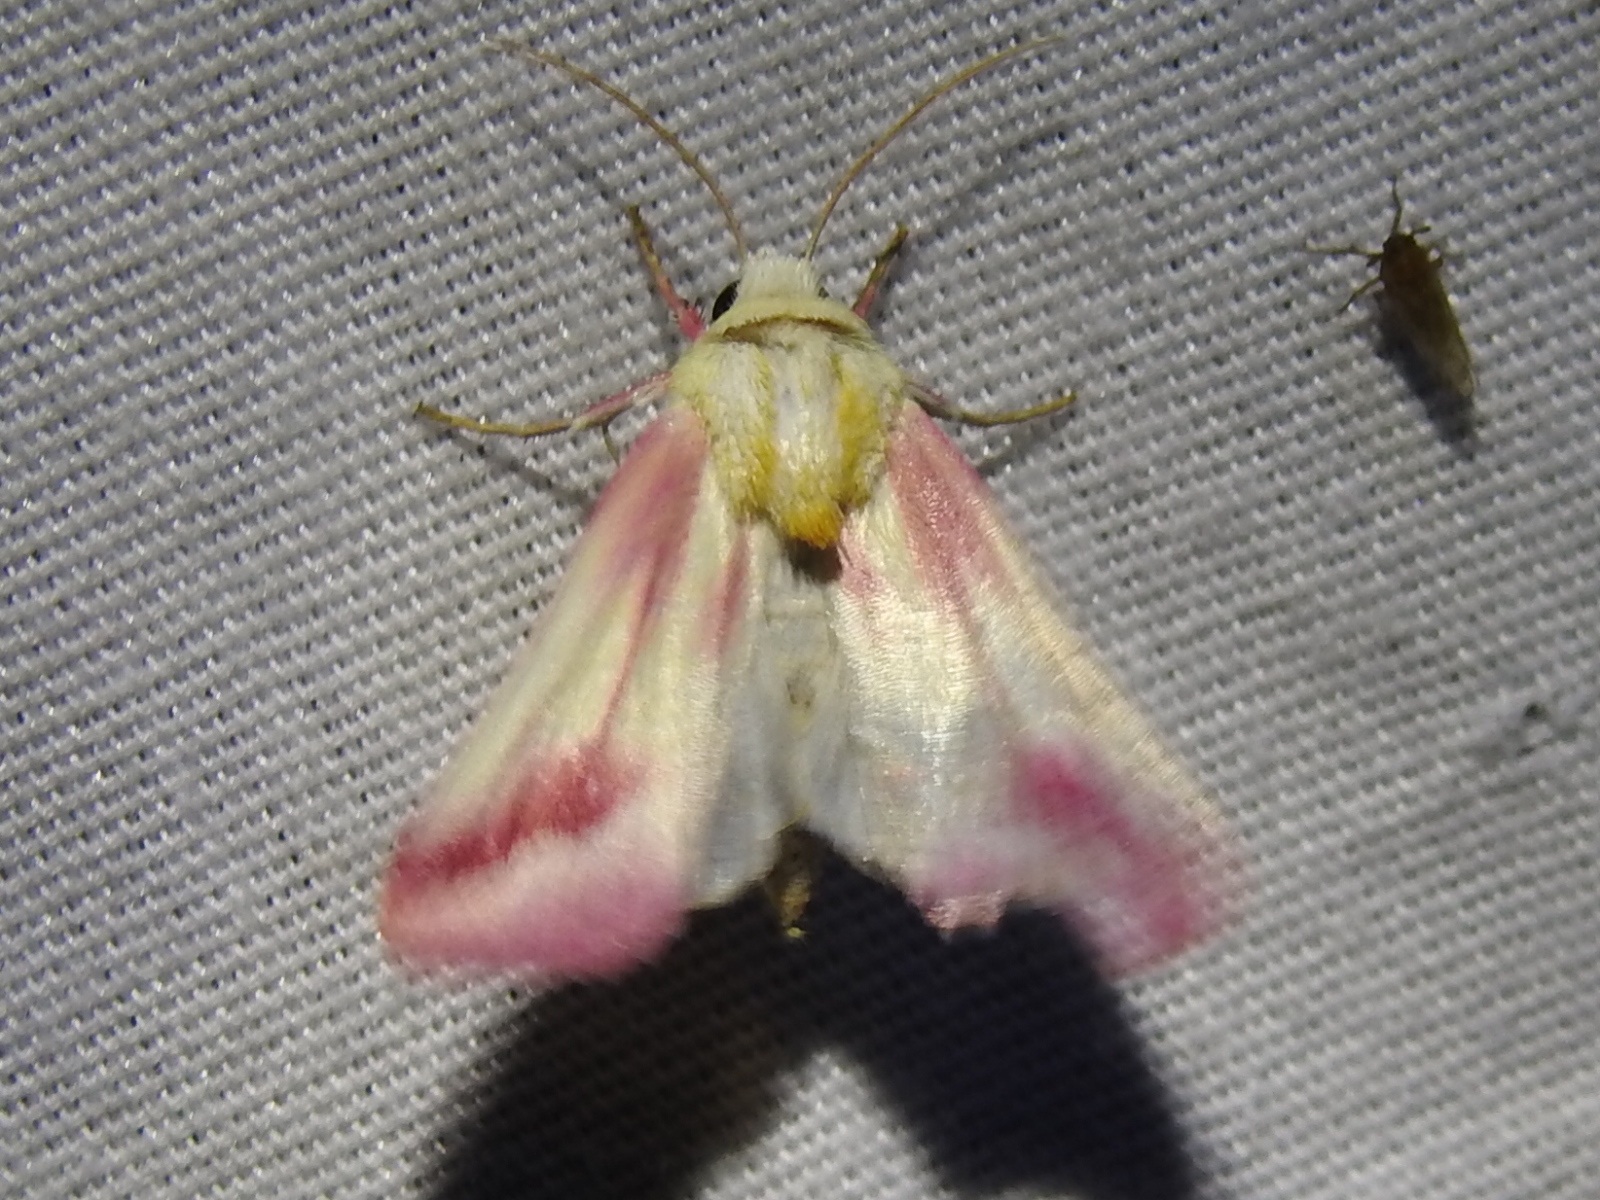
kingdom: Animalia
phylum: Arthropoda
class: Insecta
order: Lepidoptera
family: Noctuidae
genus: Schinia
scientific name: Schinia roseitincta
